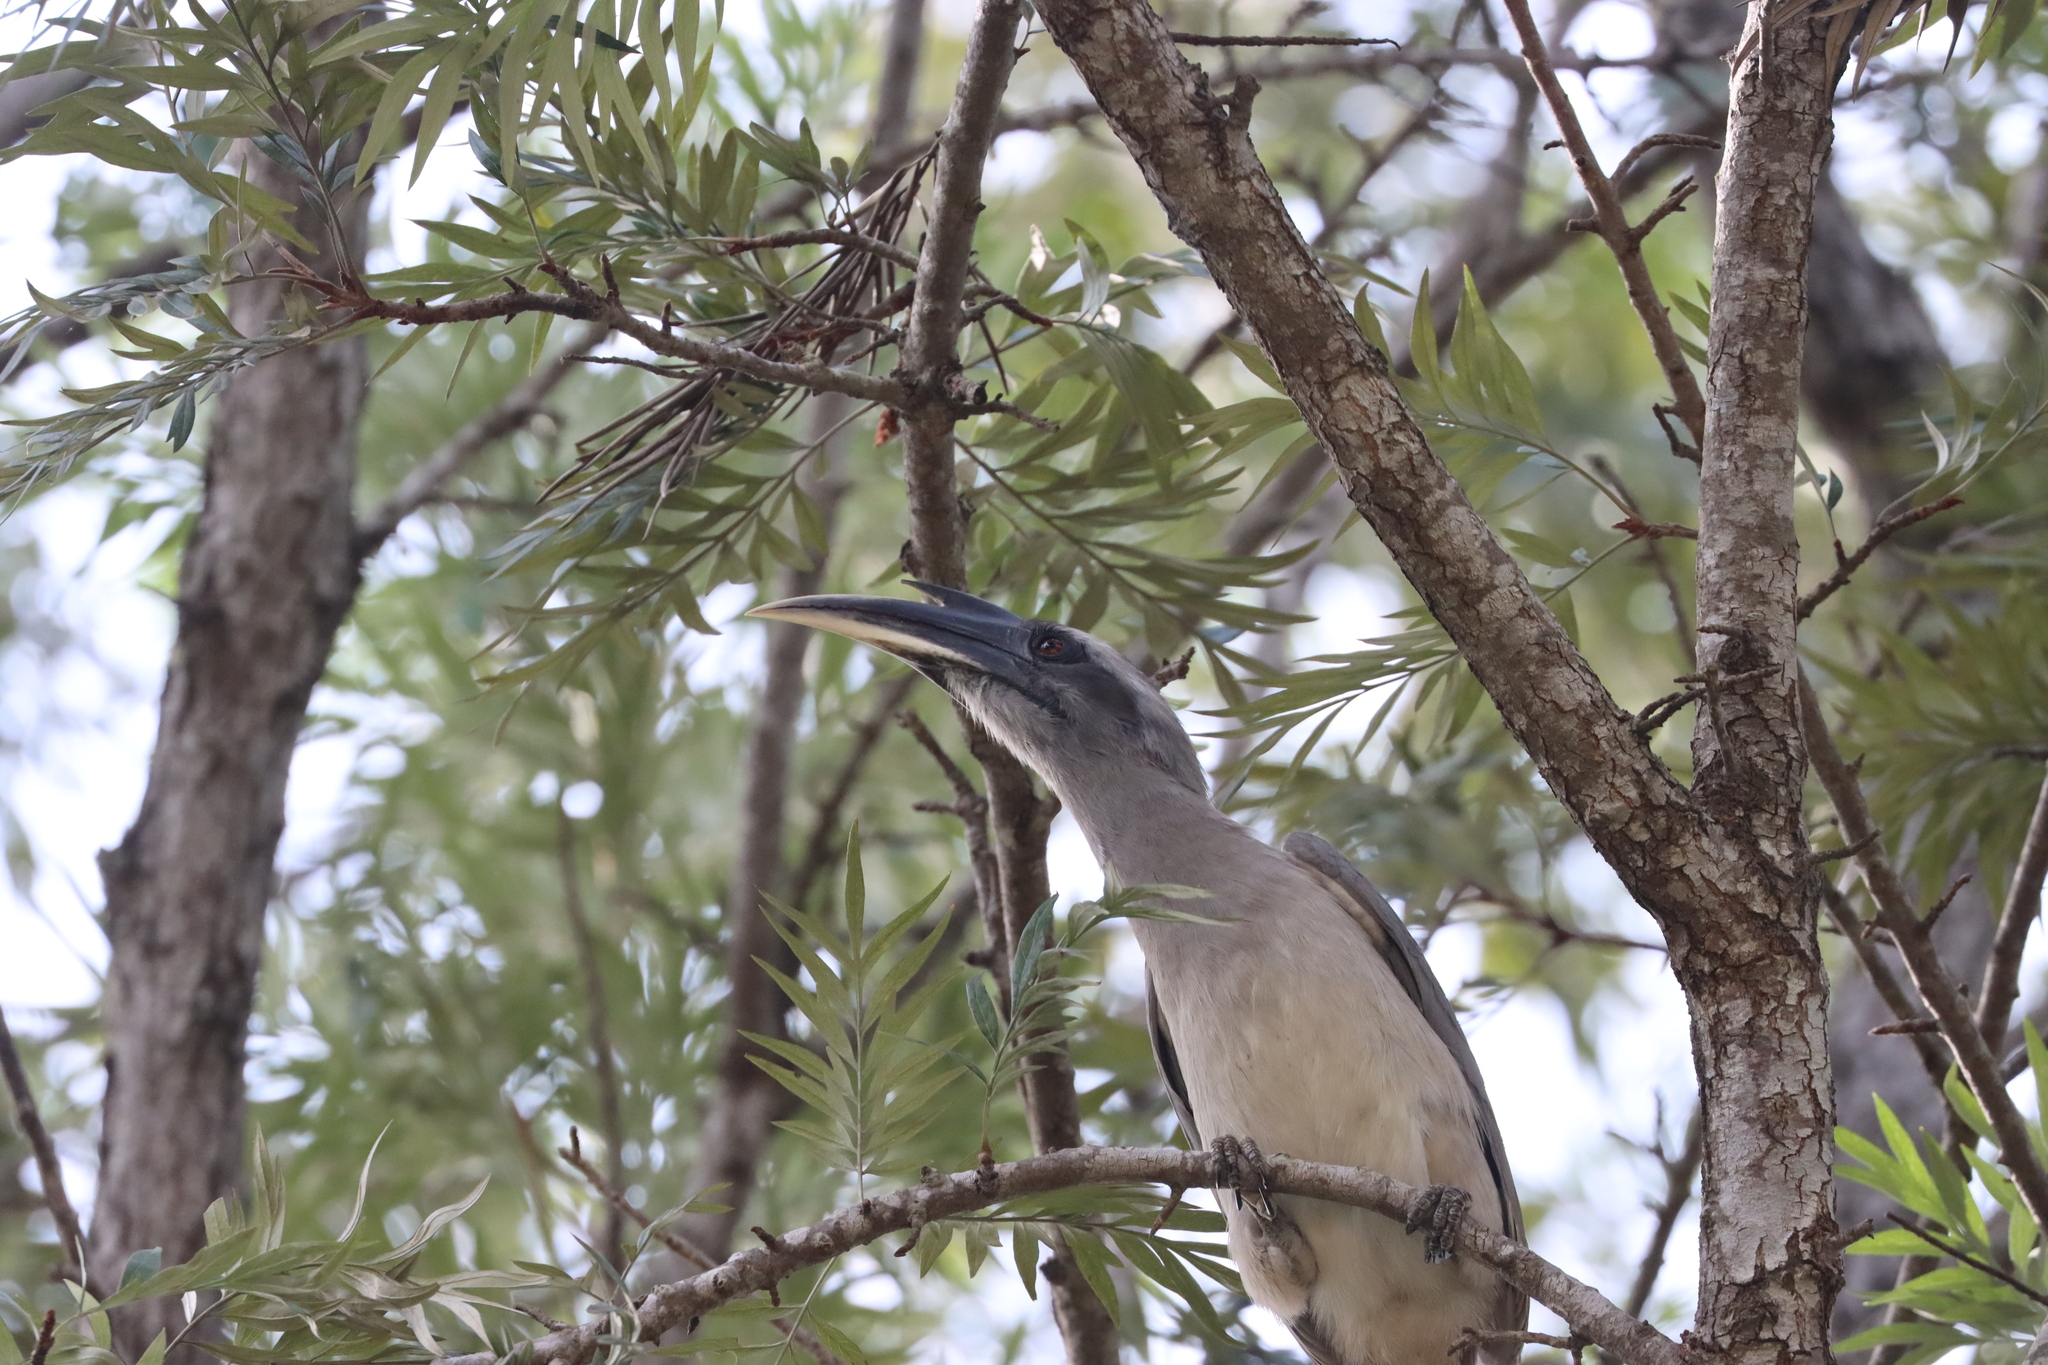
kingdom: Animalia
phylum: Chordata
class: Aves
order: Bucerotiformes
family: Bucerotidae
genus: Ocyceros
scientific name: Ocyceros birostris
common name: Indian grey hornbill
